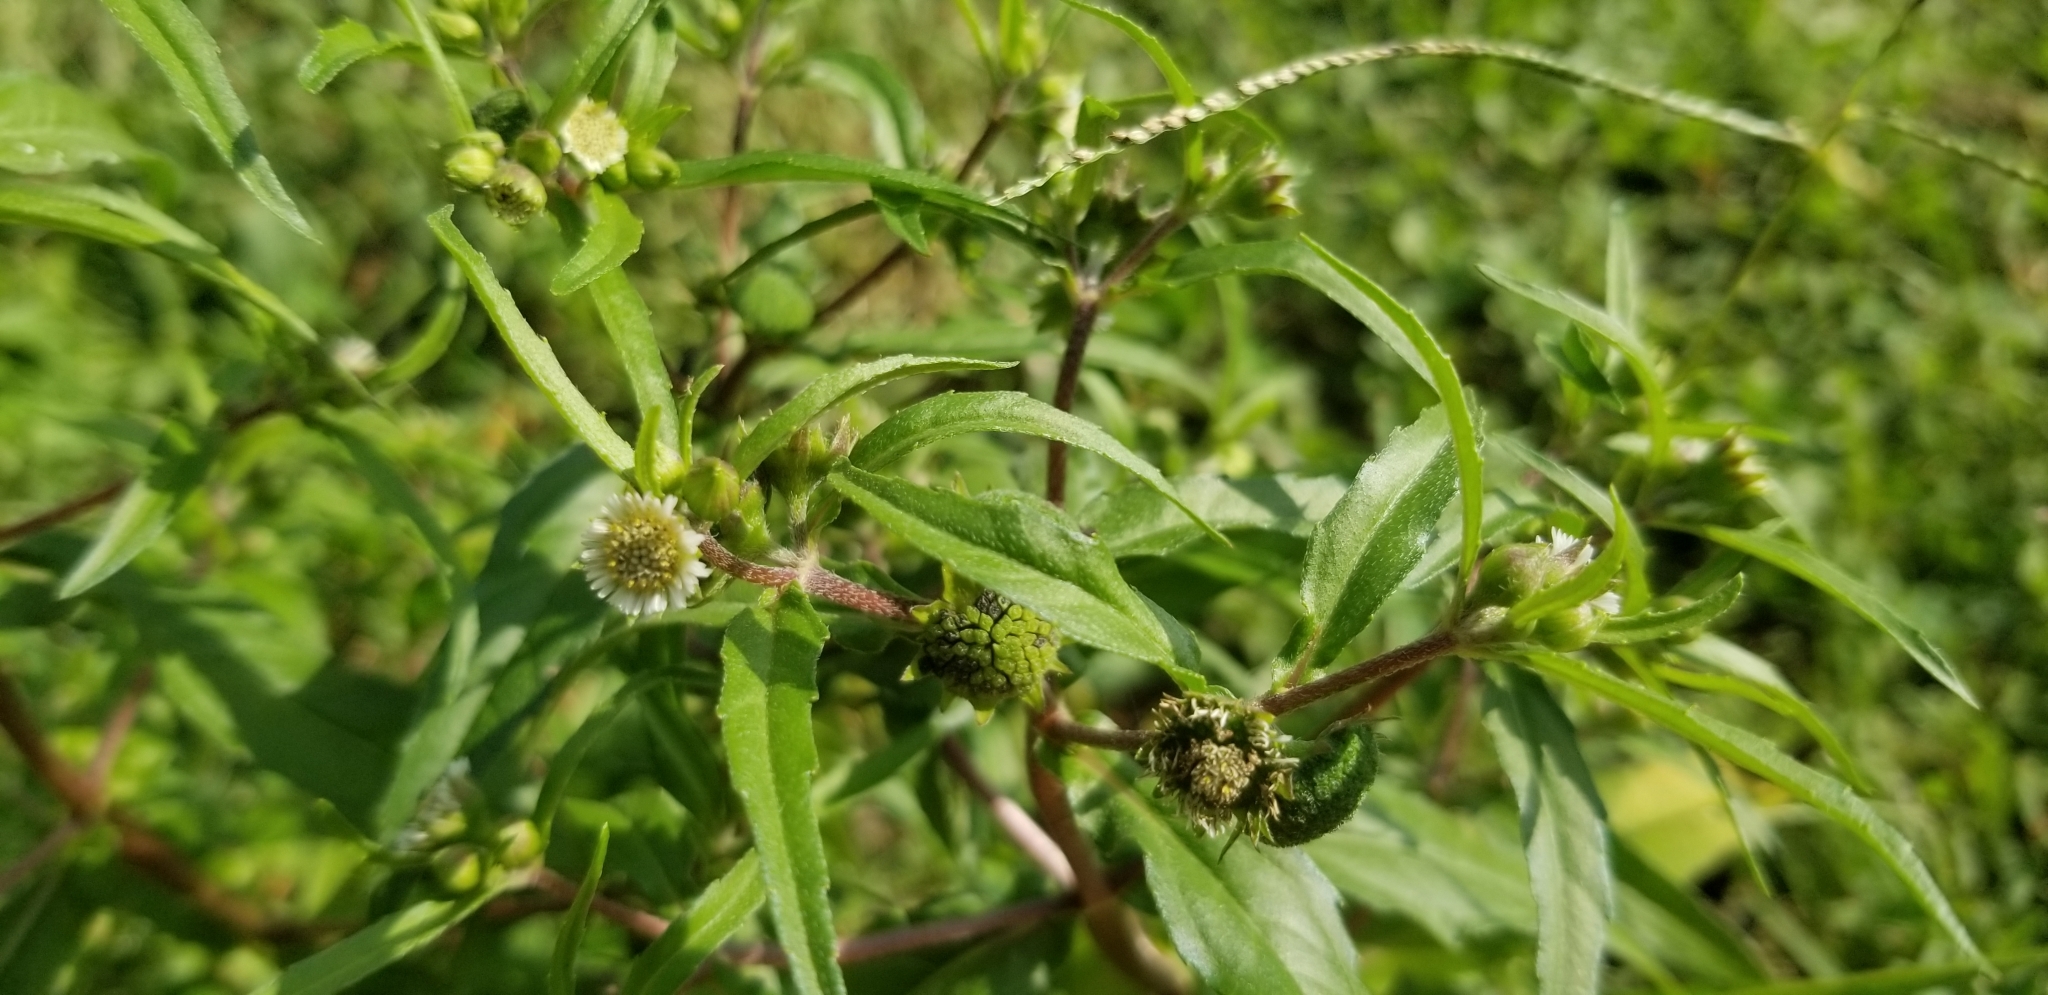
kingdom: Plantae
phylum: Tracheophyta
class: Magnoliopsida
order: Asterales
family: Asteraceae
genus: Eclipta
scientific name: Eclipta prostrata
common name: False daisy
